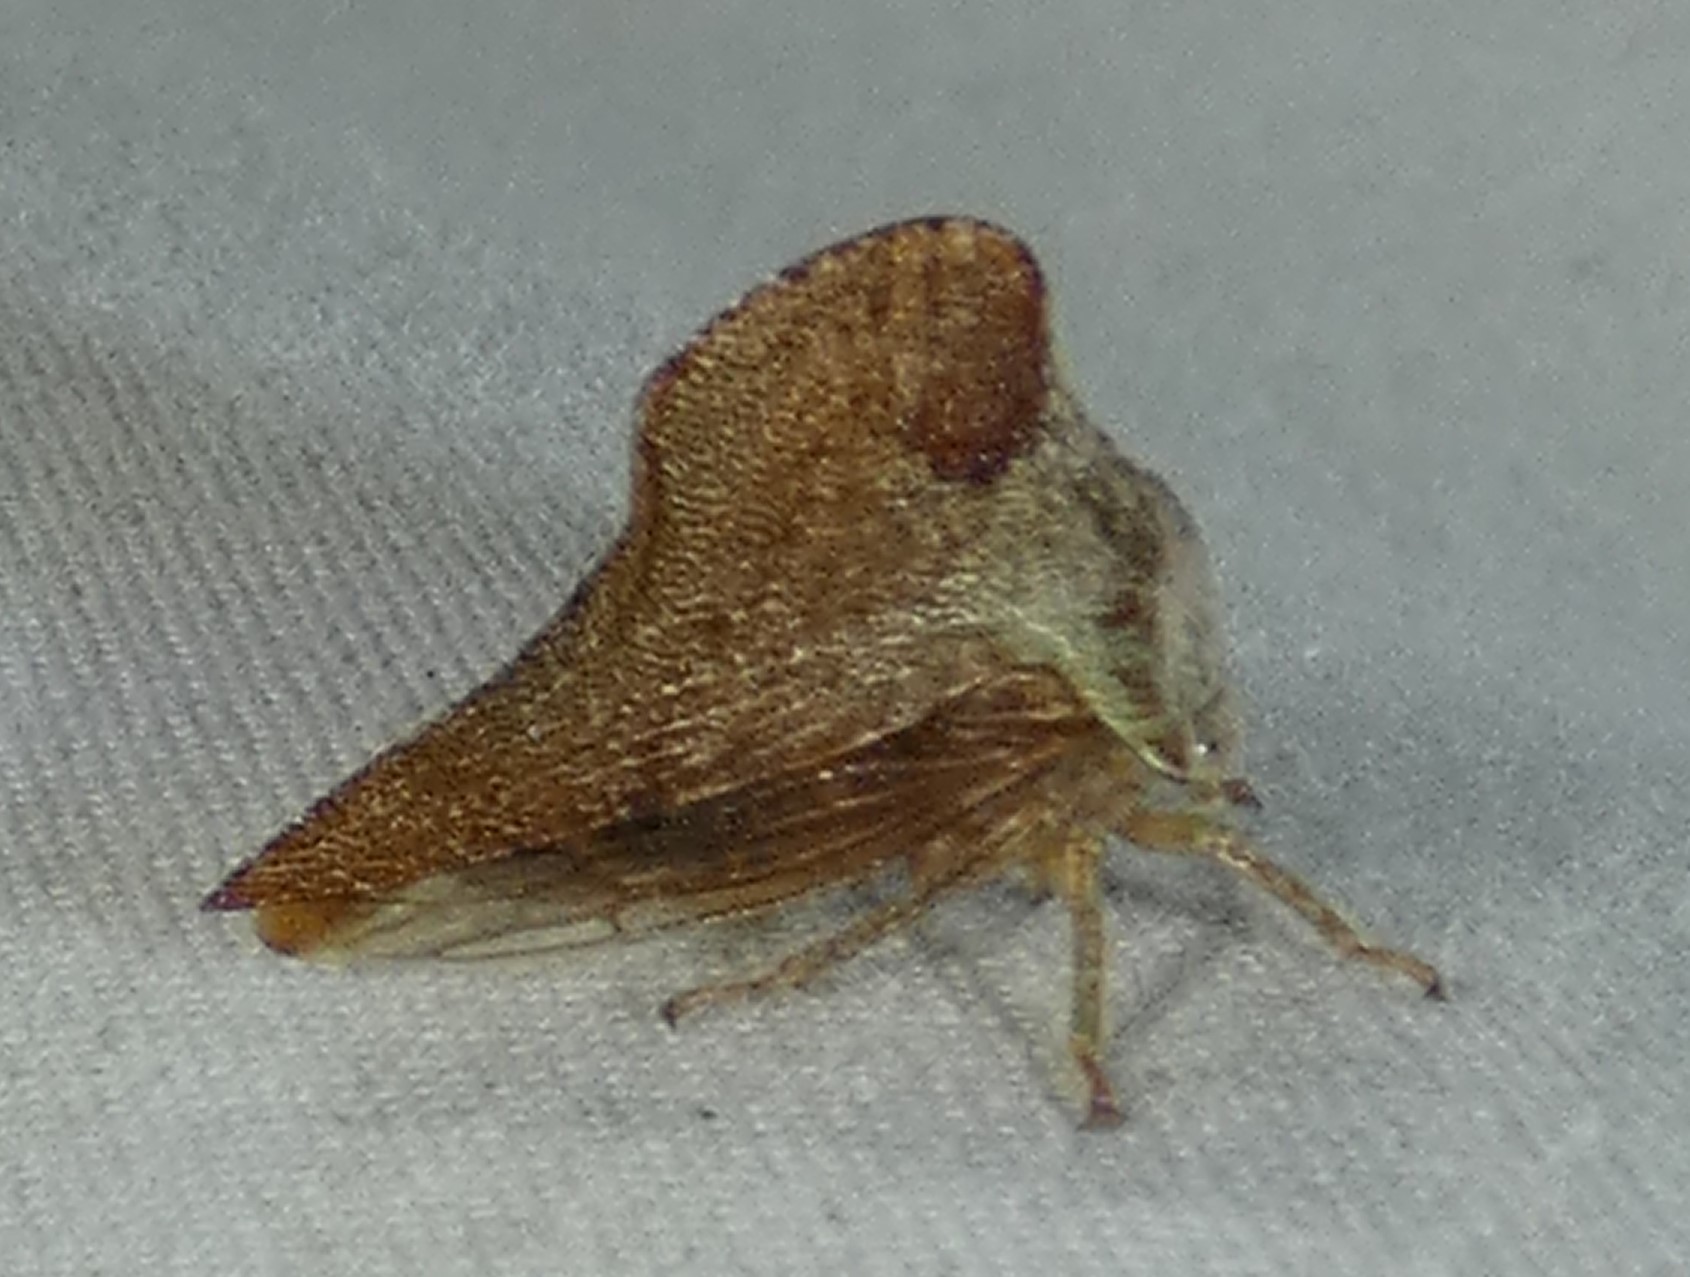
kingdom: Animalia
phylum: Arthropoda
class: Insecta
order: Hemiptera
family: Membracidae
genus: Telamona
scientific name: Telamona collina
